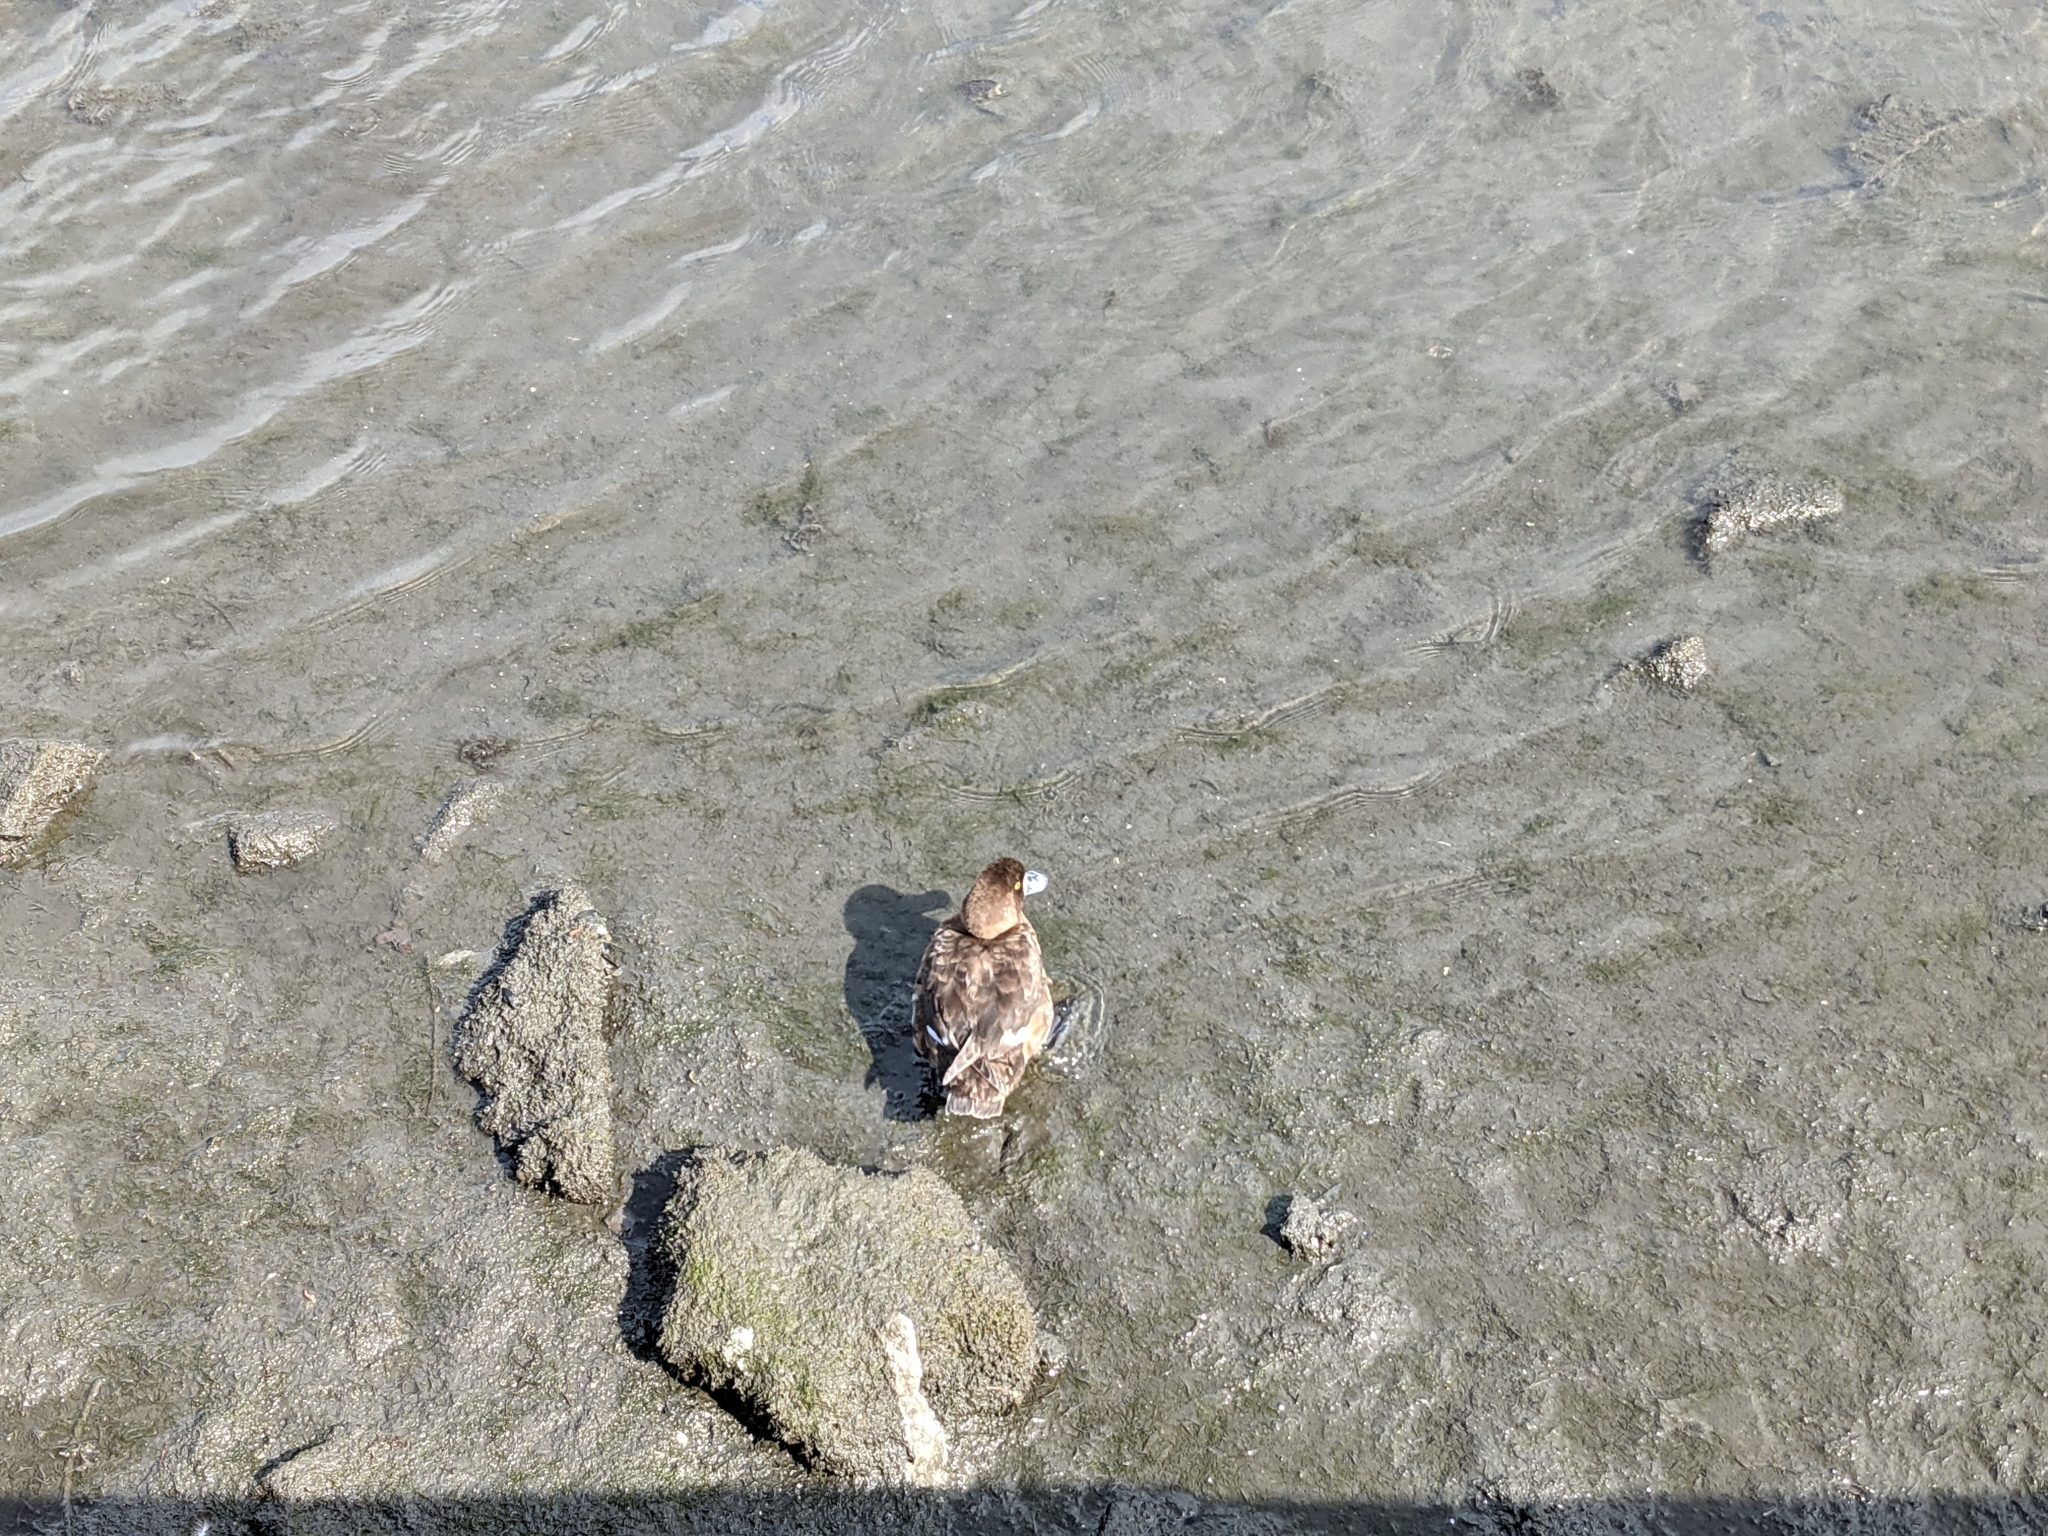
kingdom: Animalia
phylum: Chordata
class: Aves
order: Anseriformes
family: Anatidae
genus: Aythya
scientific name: Aythya
